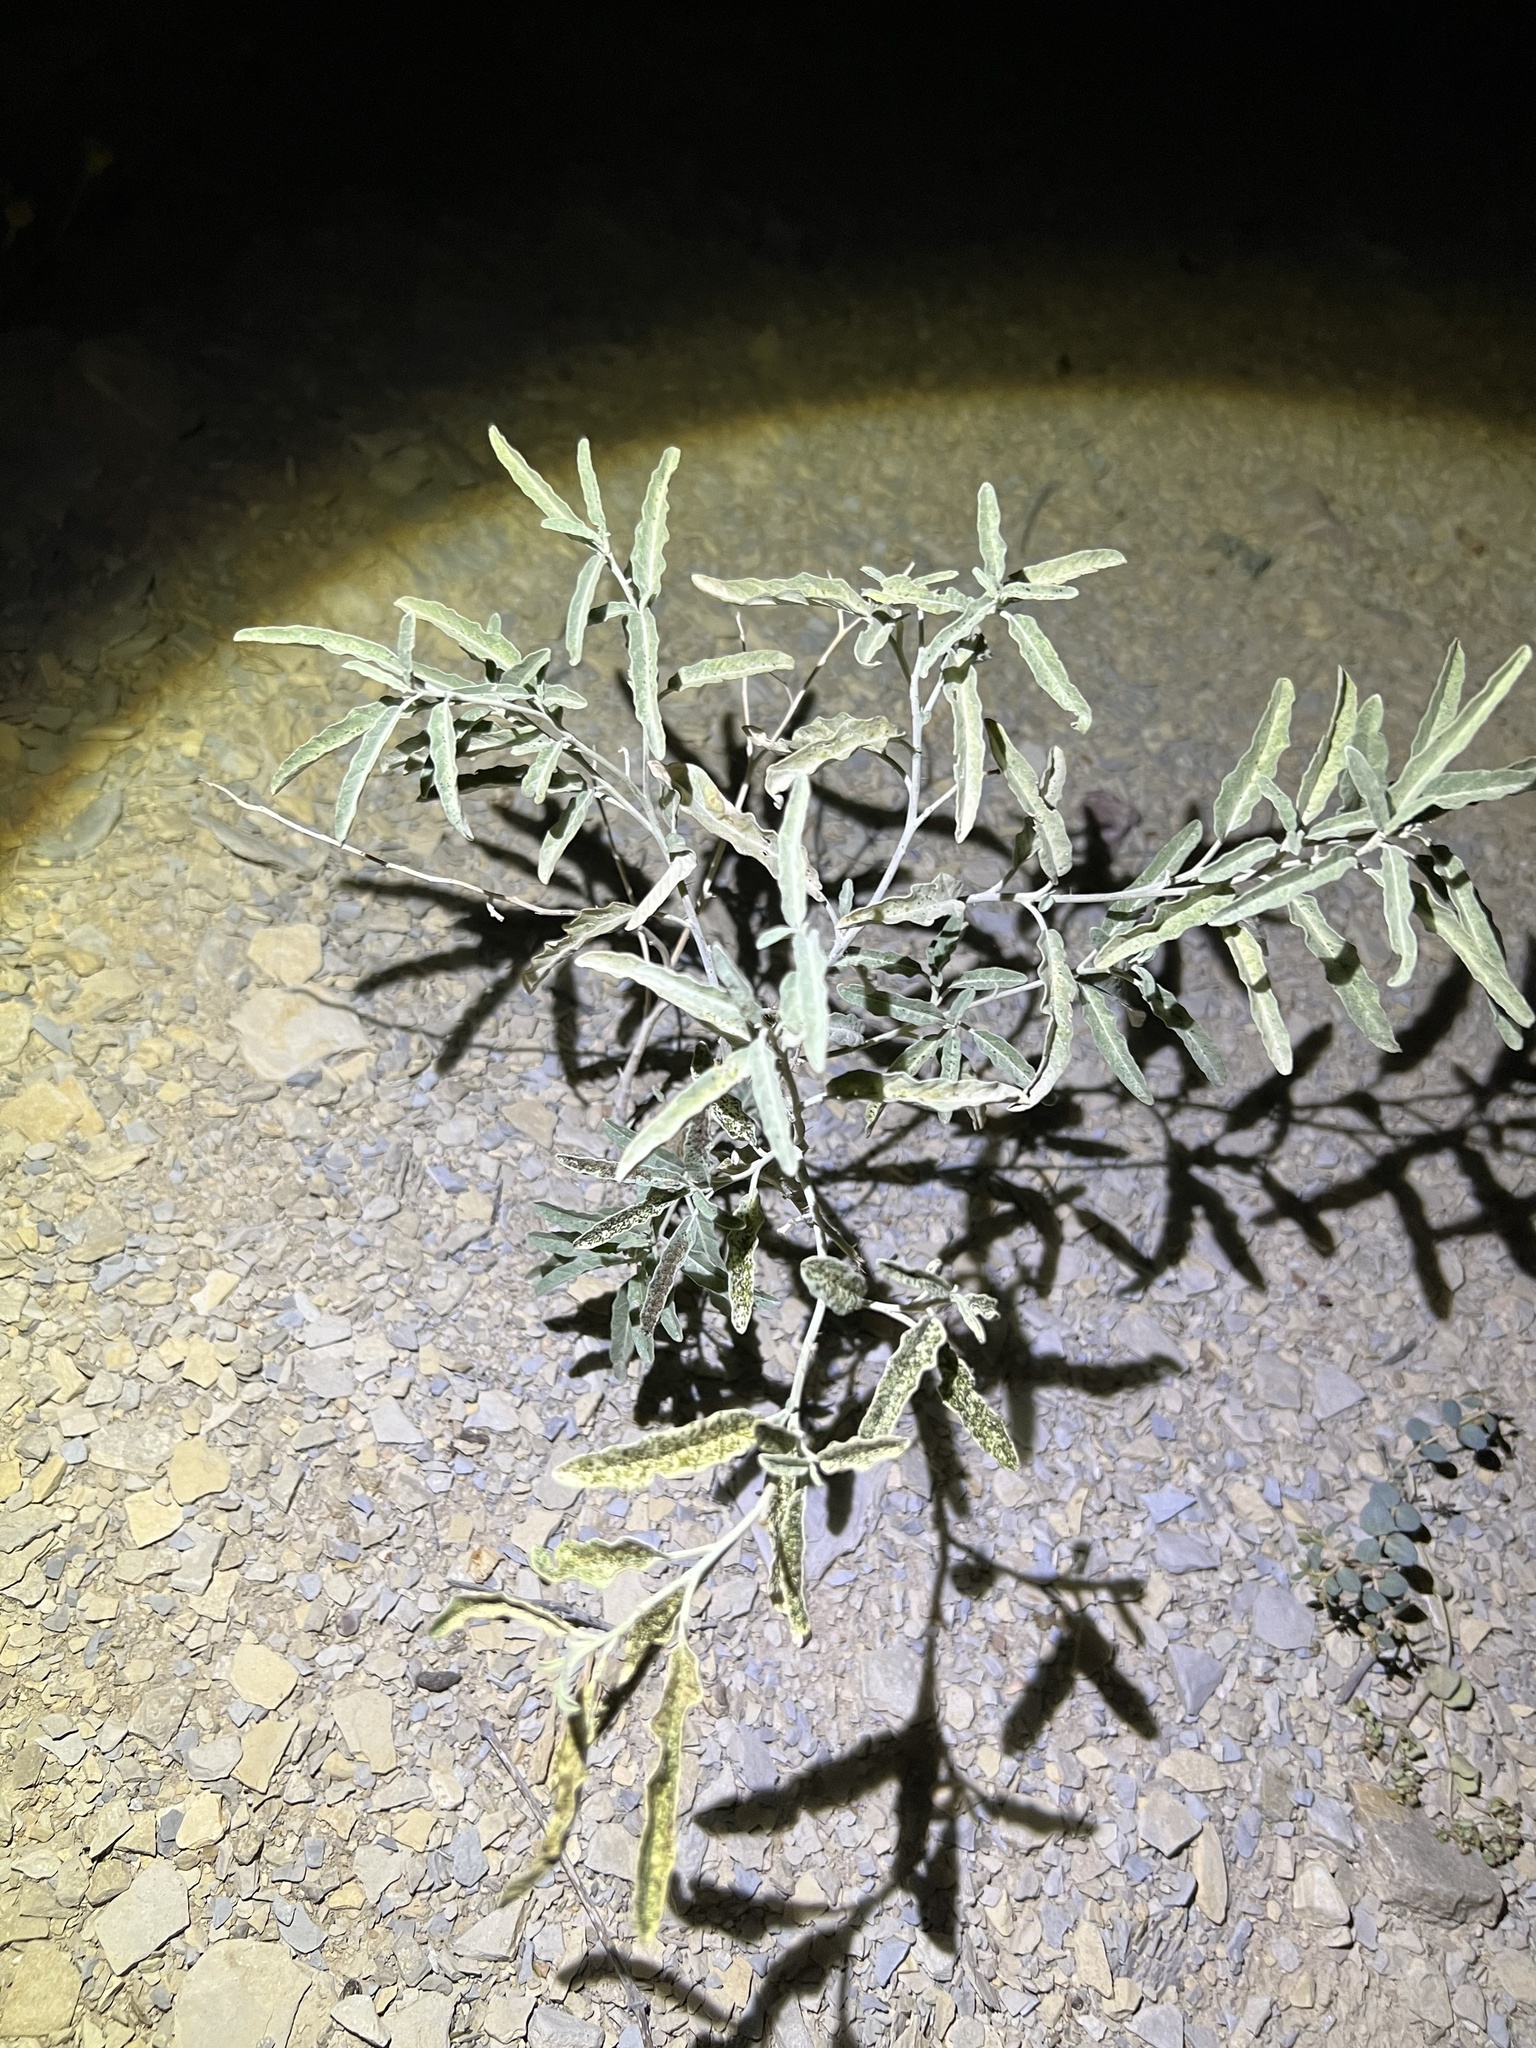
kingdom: Plantae
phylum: Tracheophyta
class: Magnoliopsida
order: Solanales
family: Solanaceae
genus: Solanum
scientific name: Solanum elaeagnifolium
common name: Silverleaf nightshade
